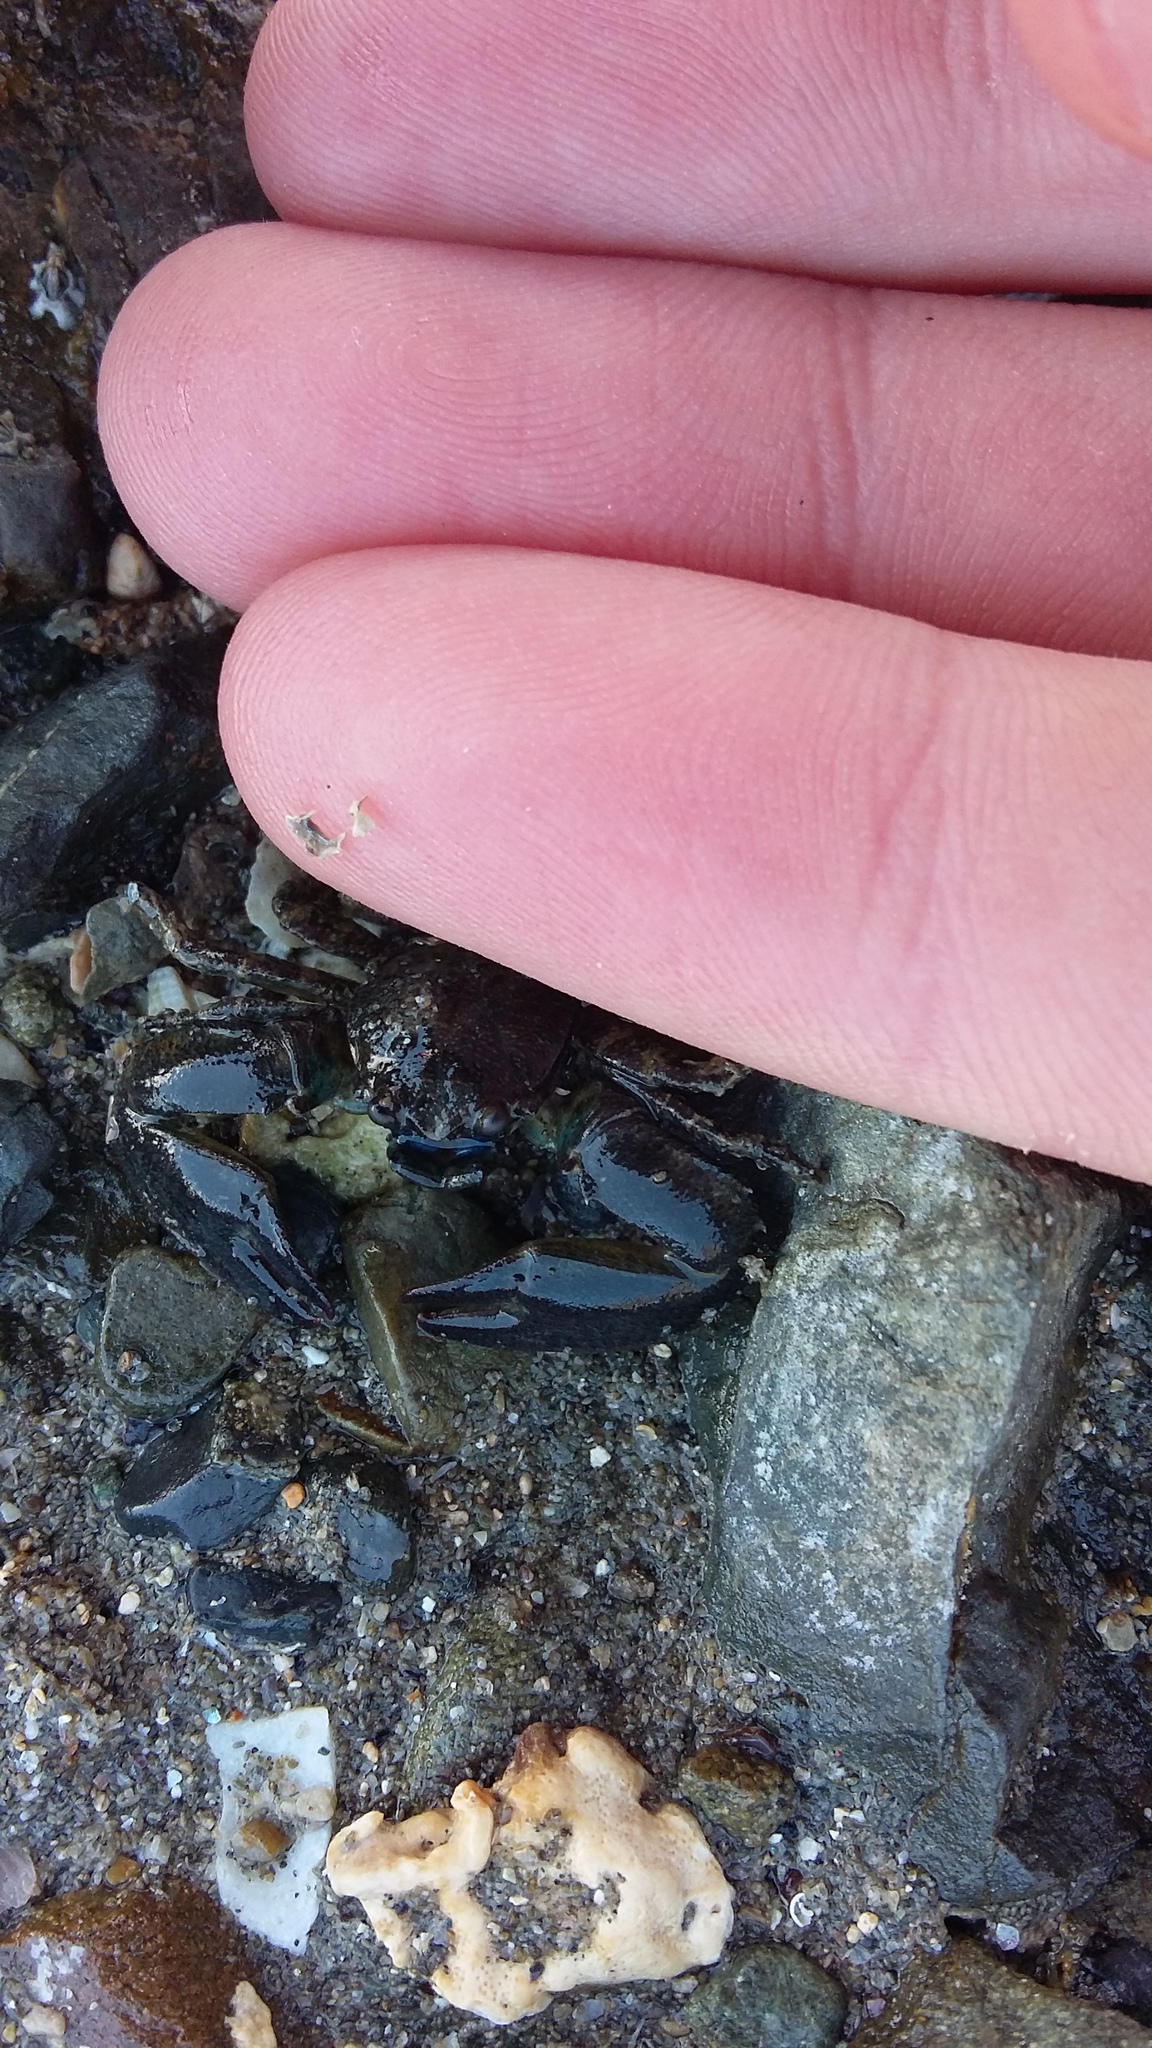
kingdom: Animalia
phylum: Arthropoda
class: Malacostraca
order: Decapoda
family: Porcellanidae
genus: Petrolisthes
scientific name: Petrolisthes elongatus
